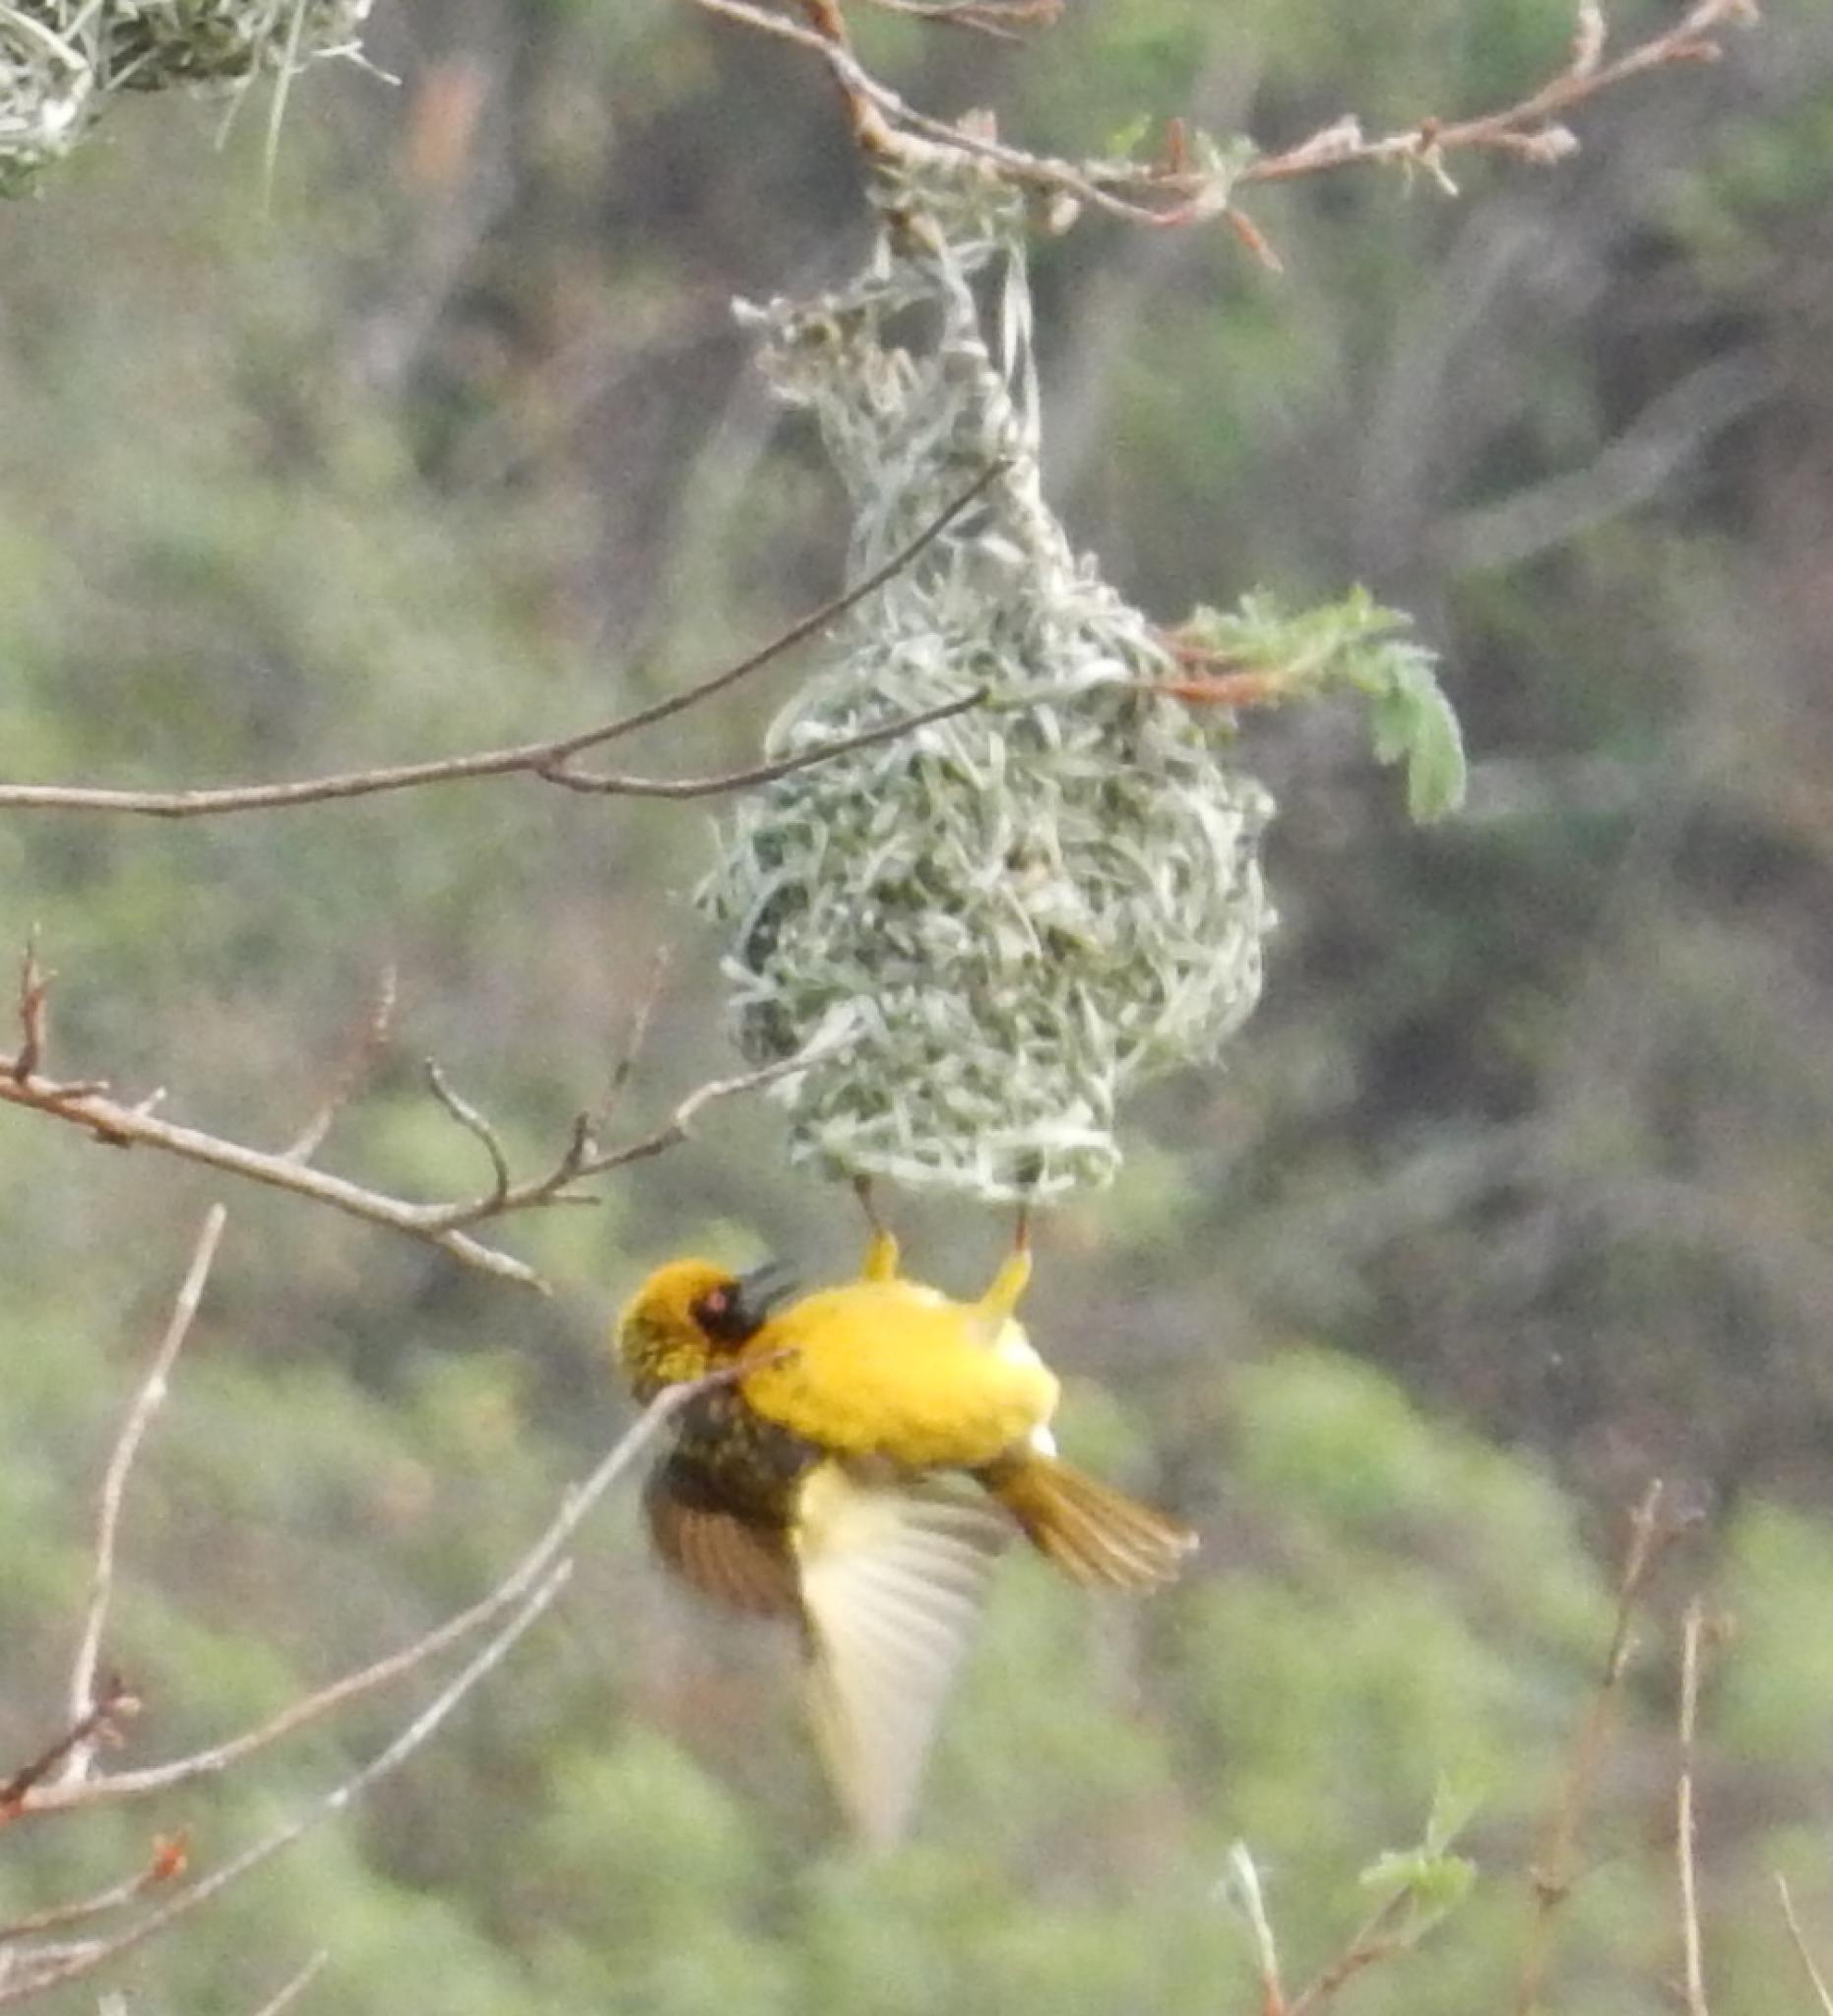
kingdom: Animalia
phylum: Chordata
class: Aves
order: Passeriformes
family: Ploceidae
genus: Ploceus
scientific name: Ploceus cucullatus
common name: Village weaver
